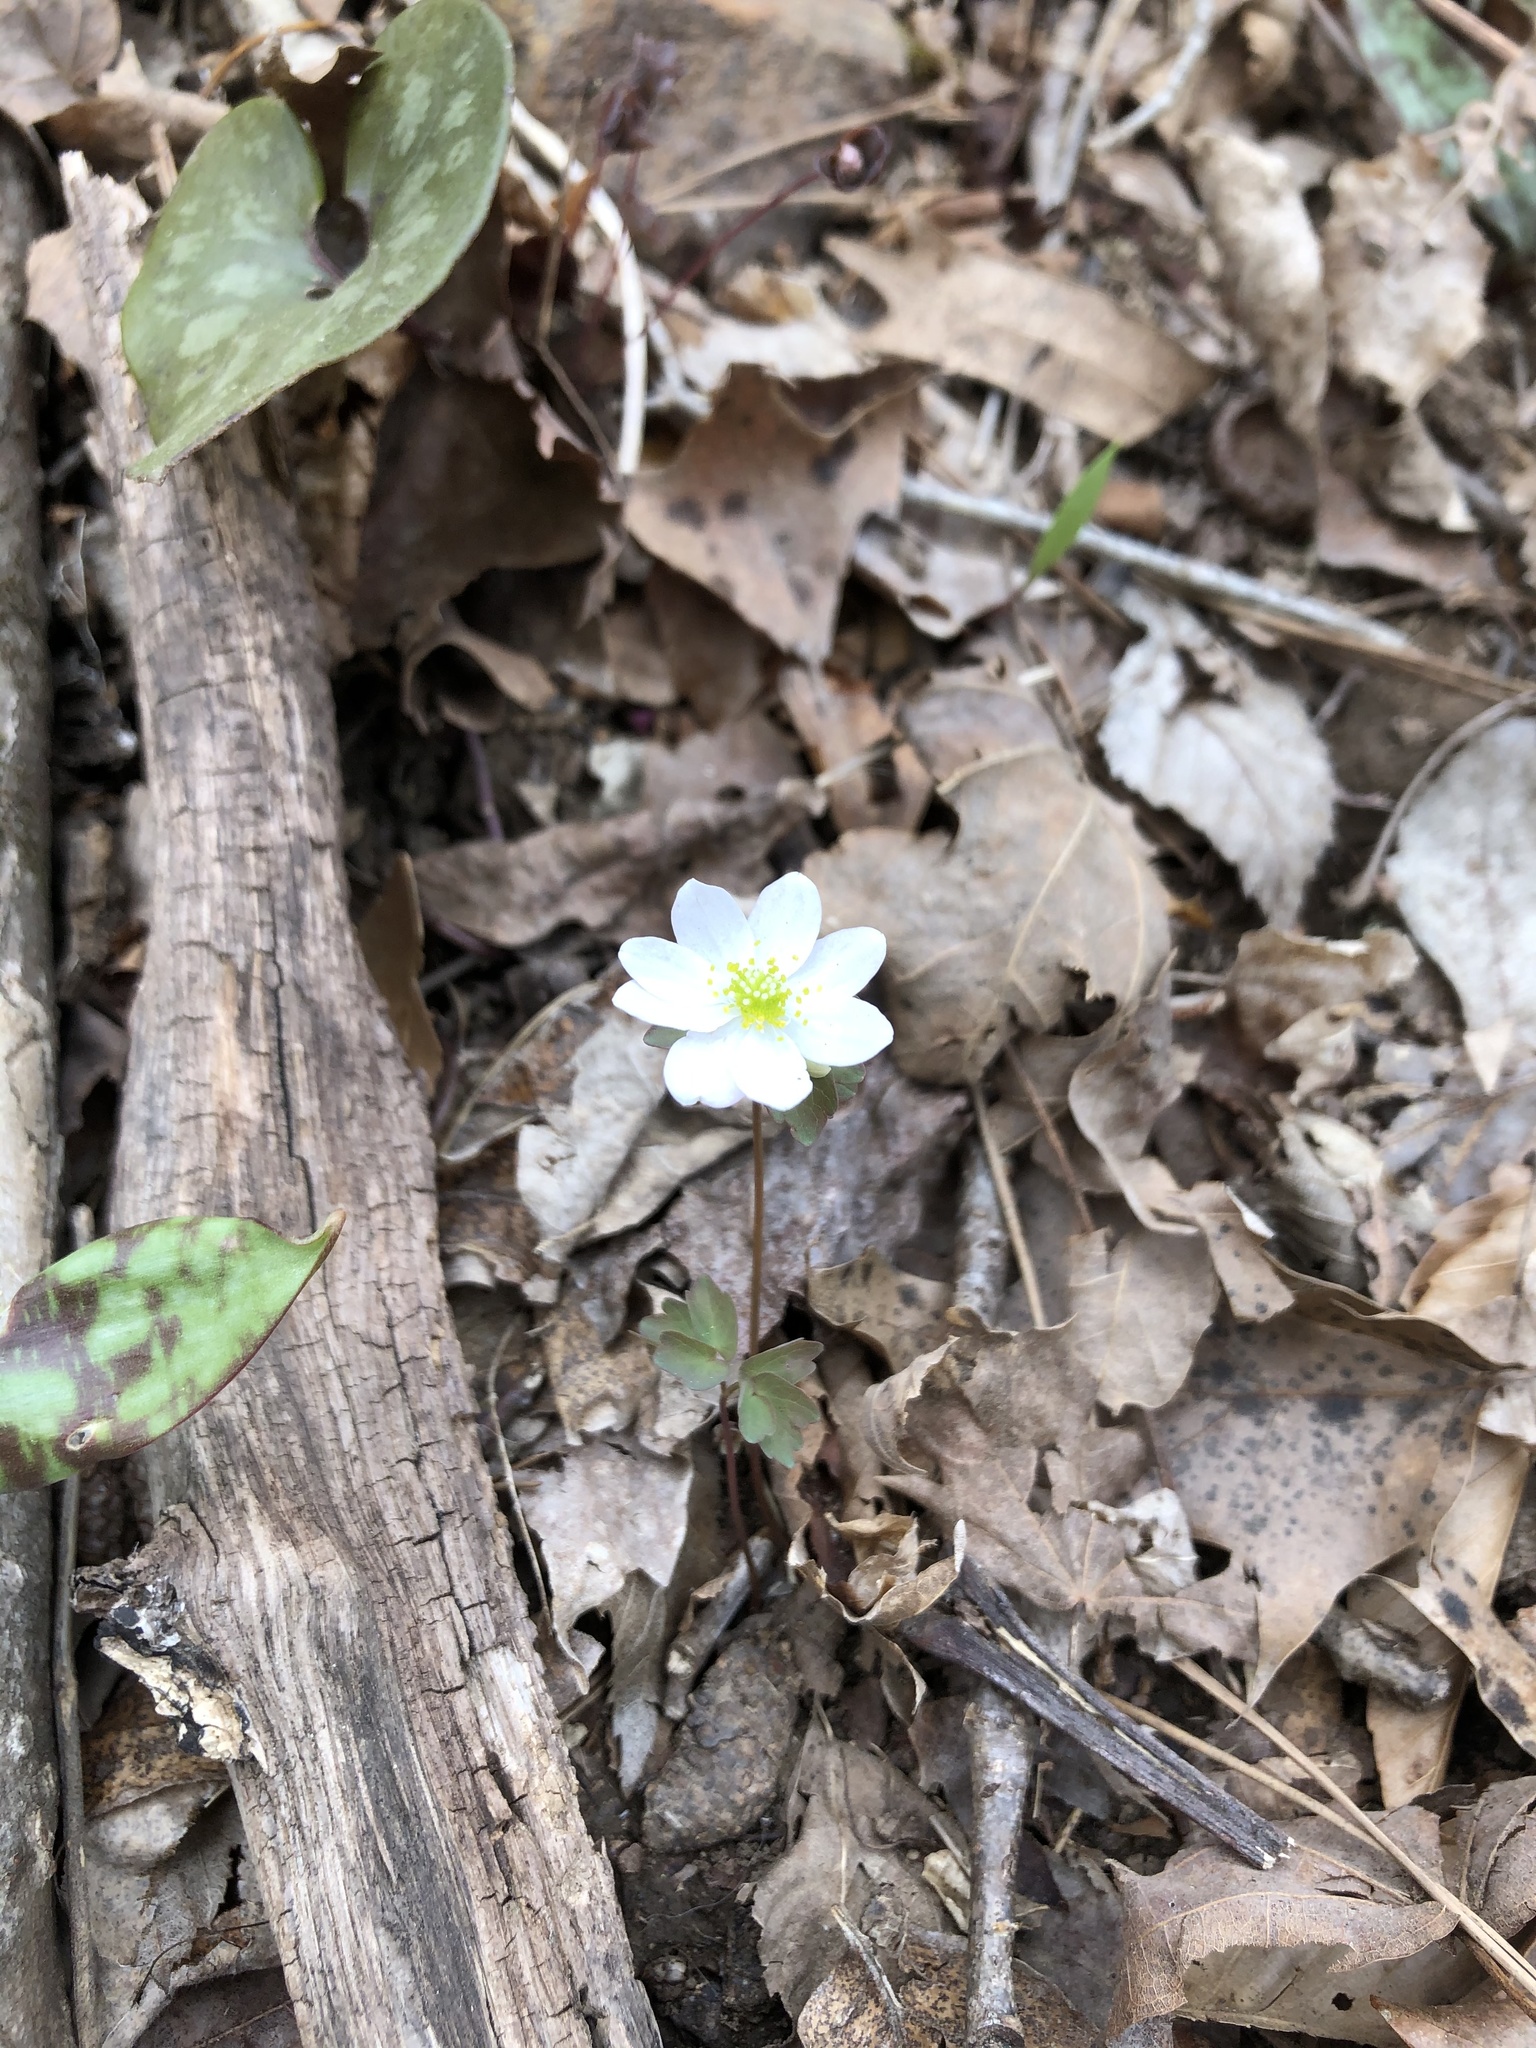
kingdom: Plantae
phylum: Tracheophyta
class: Magnoliopsida
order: Ranunculales
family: Ranunculaceae
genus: Thalictrum
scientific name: Thalictrum thalictroides
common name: Rue-anemone
